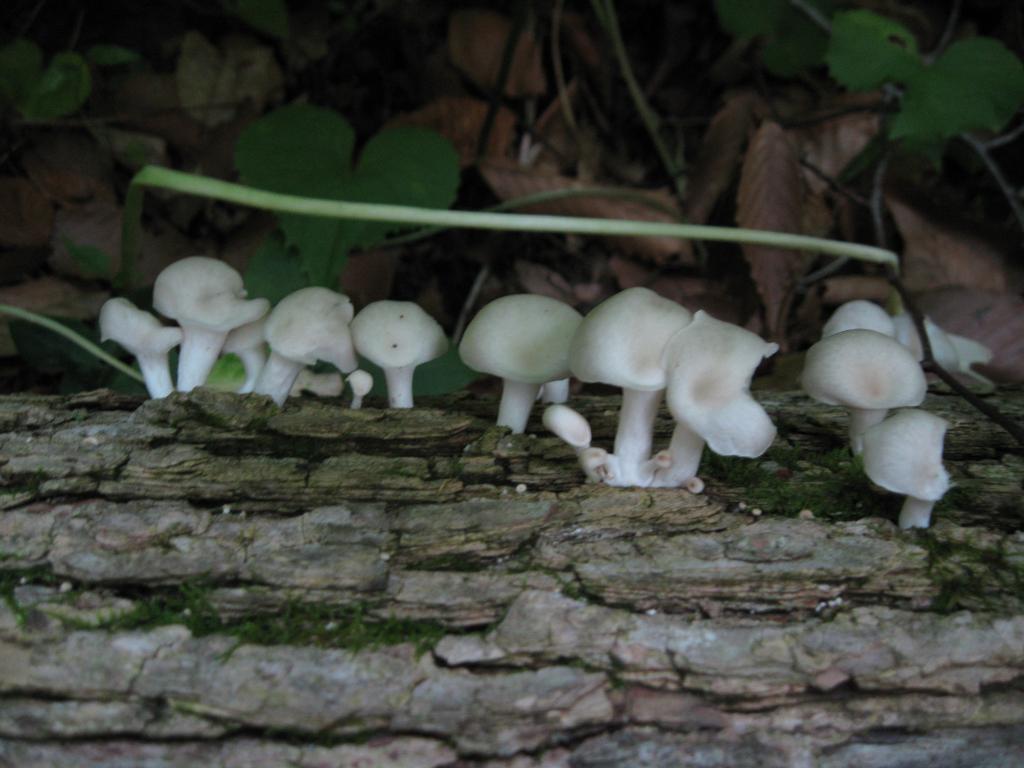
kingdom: Fungi
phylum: Basidiomycota
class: Agaricomycetes
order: Agaricales
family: Pleurotaceae
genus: Pleurotus
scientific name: Pleurotus pulmonarius
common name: Pale oyster
